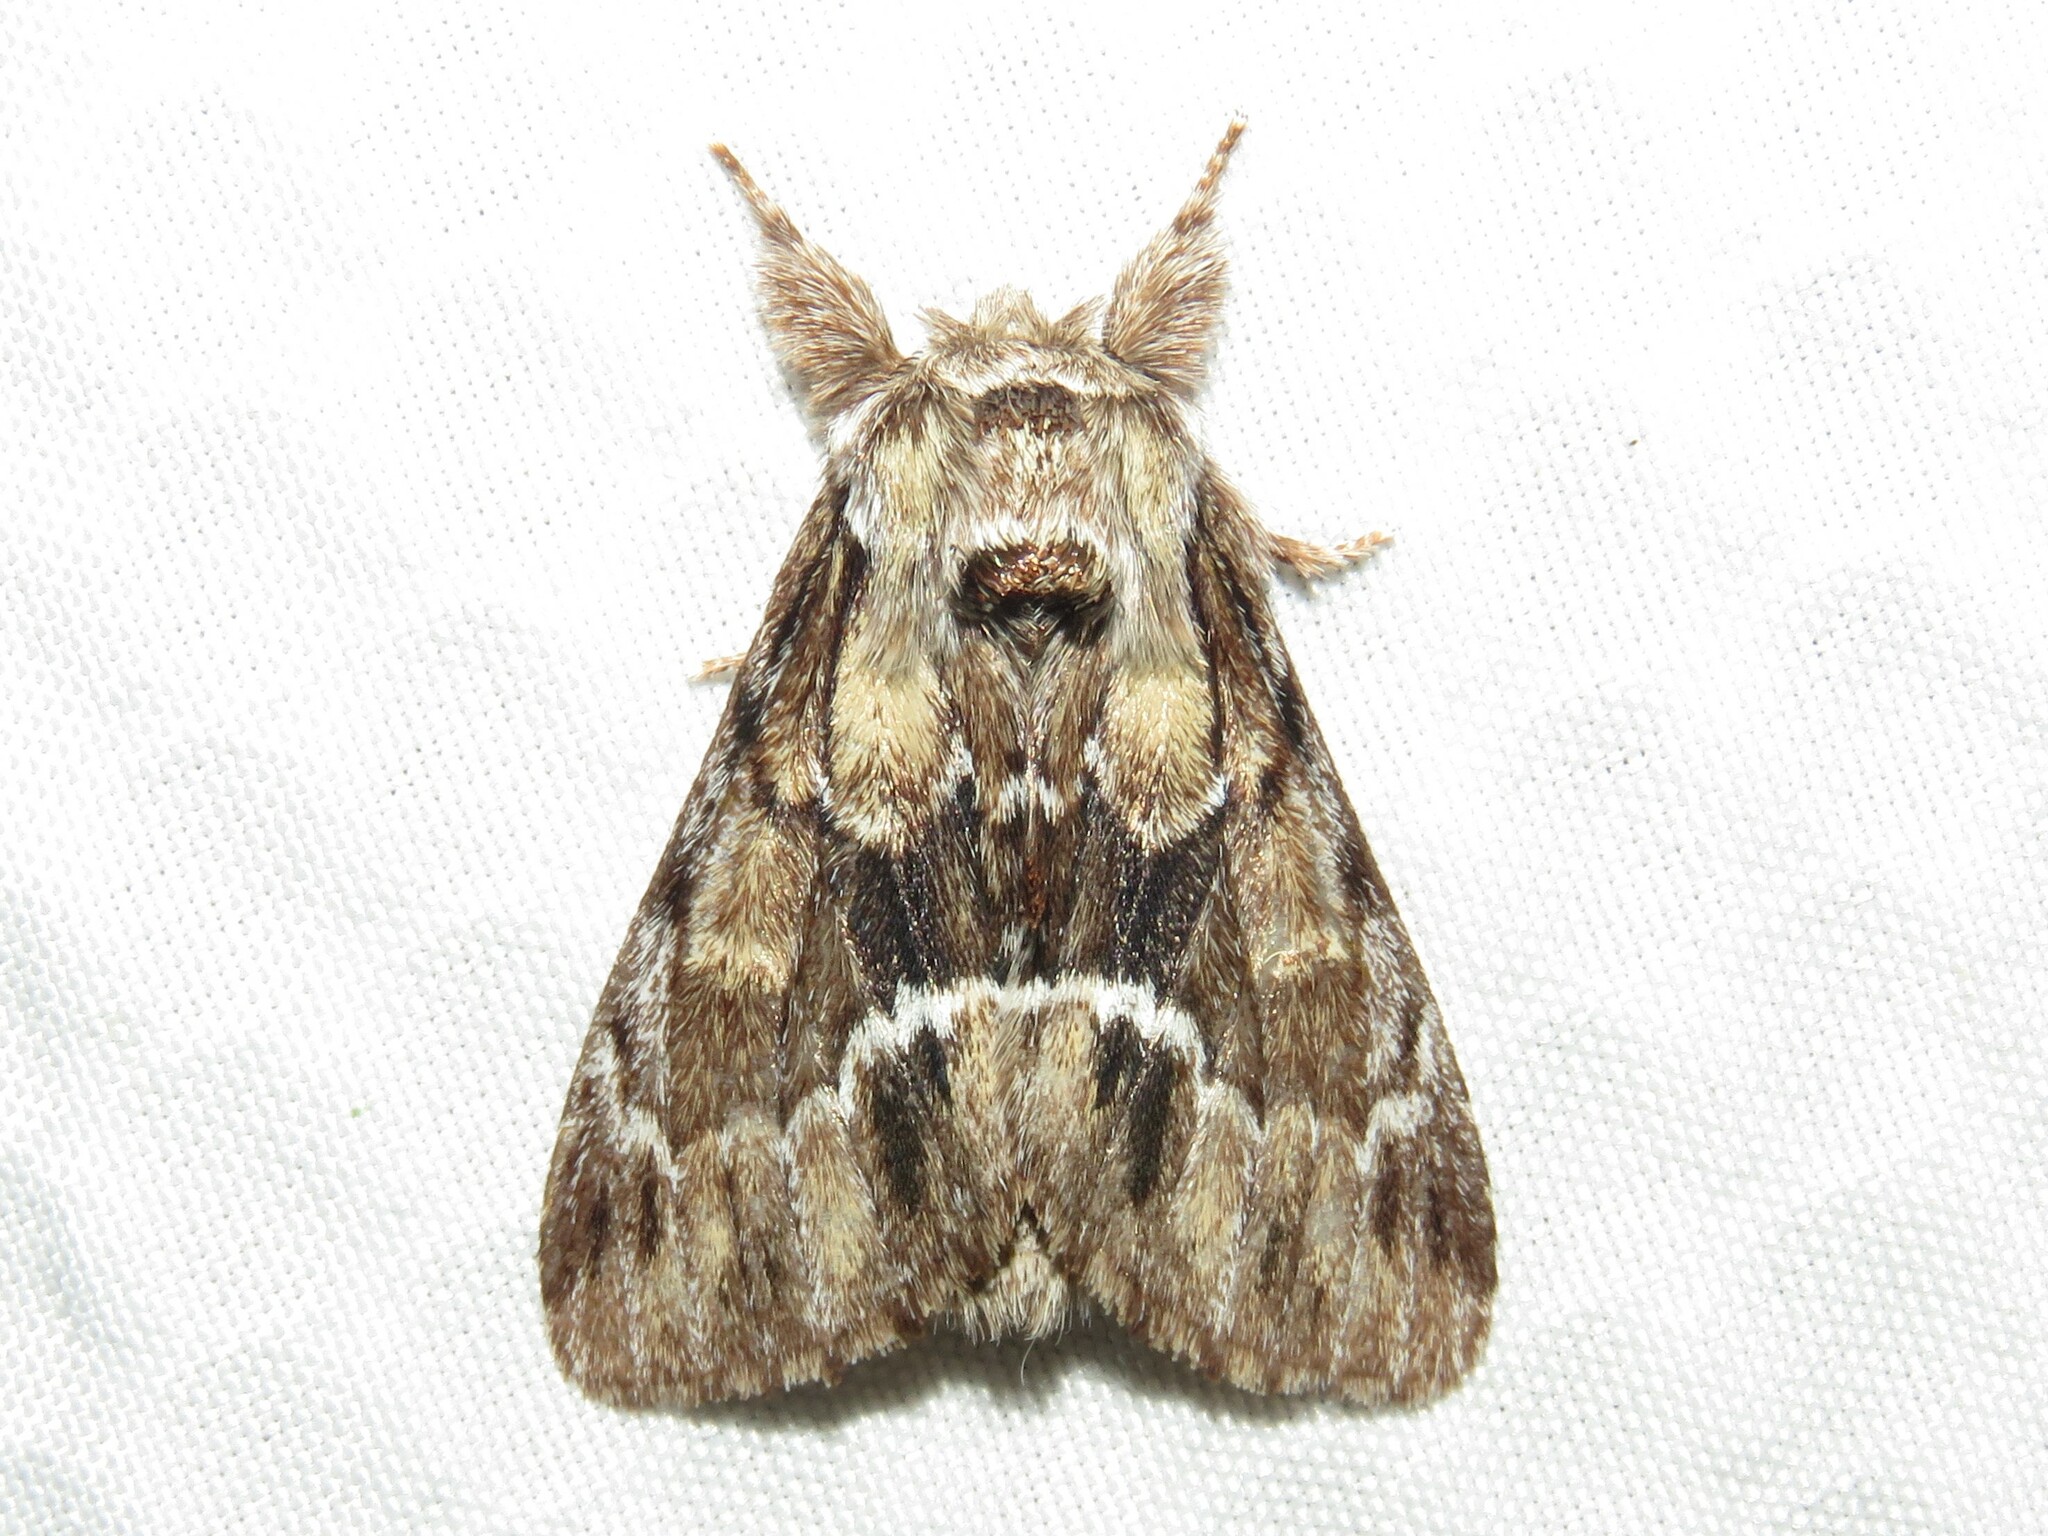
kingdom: Animalia
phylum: Arthropoda
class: Insecta
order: Lepidoptera
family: Notodontidae
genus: Paraeschra
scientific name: Paraeschra georgica
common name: Georgian prominent
